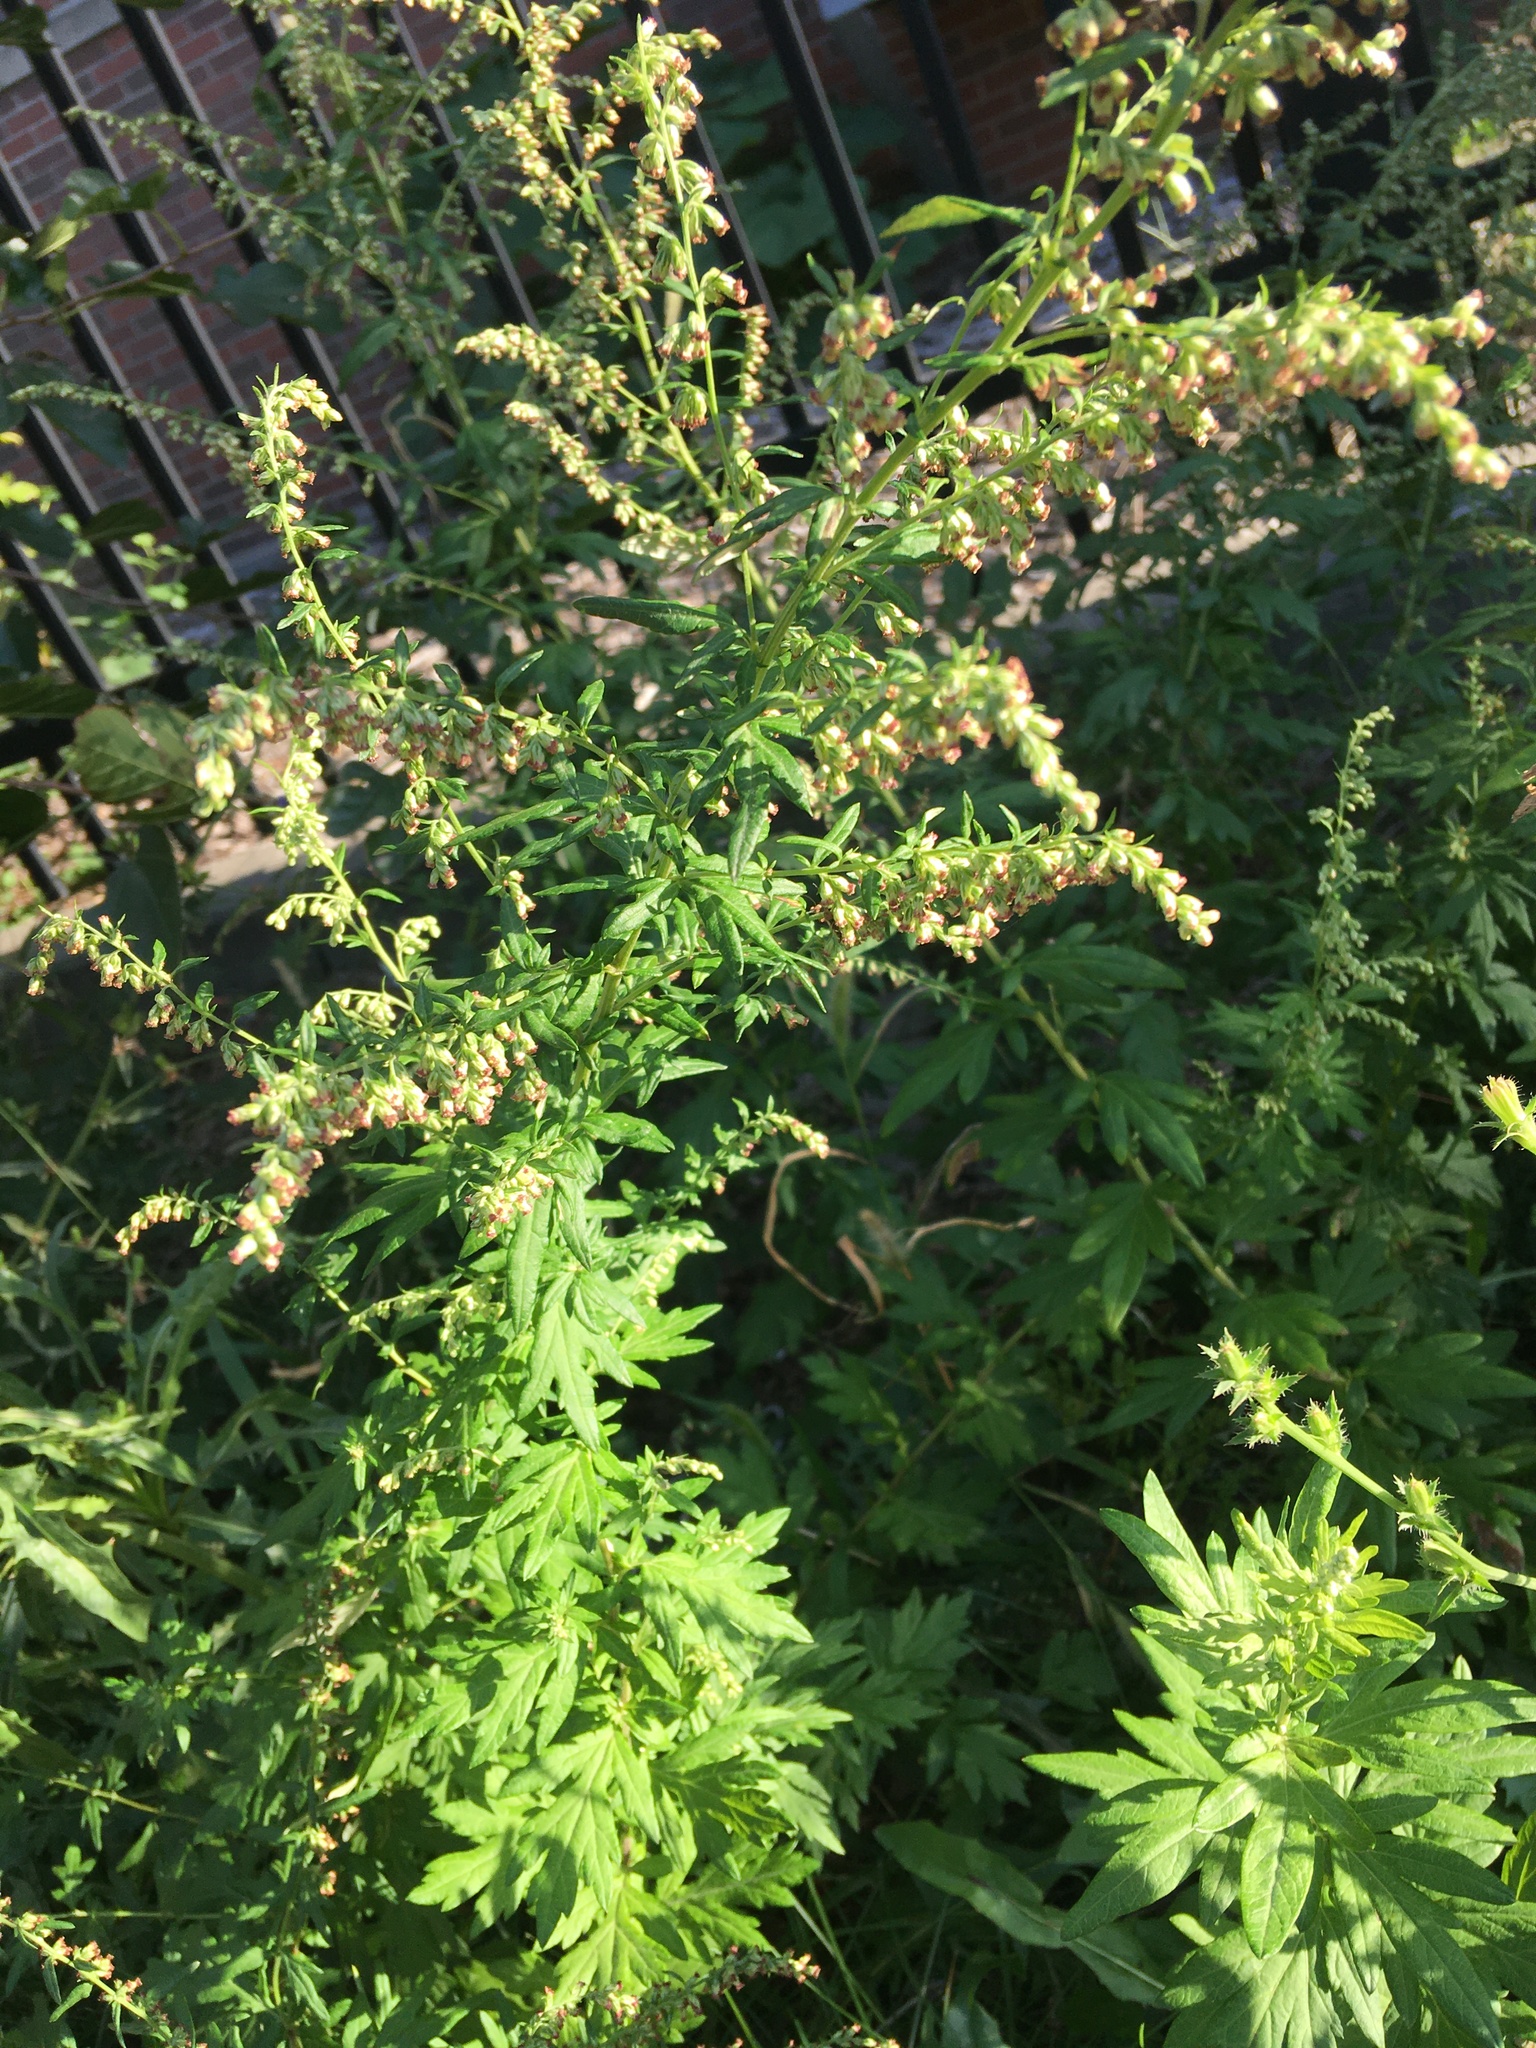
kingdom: Plantae
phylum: Tracheophyta
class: Magnoliopsida
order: Asterales
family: Asteraceae
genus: Artemisia
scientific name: Artemisia vulgaris
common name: Mugwort
